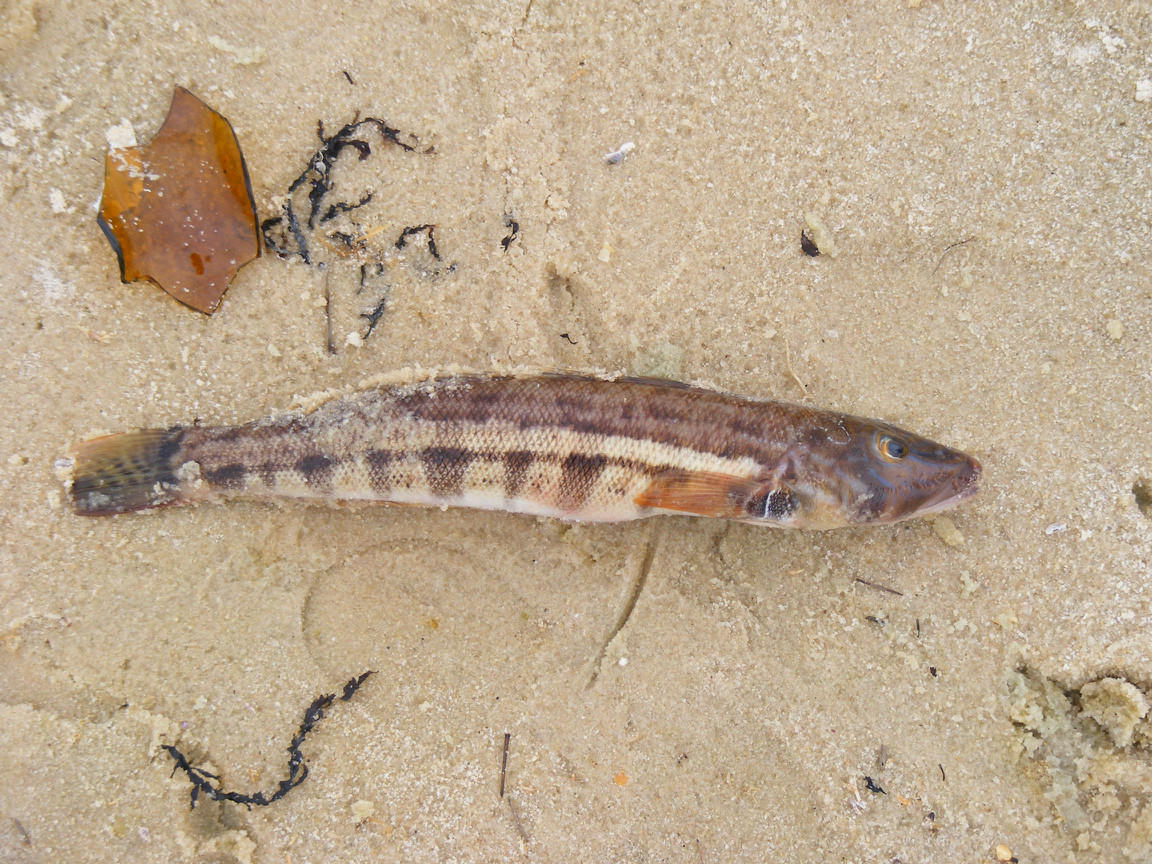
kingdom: Animalia
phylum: Chordata
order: Perciformes
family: Pinguipedidae
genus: Parapercis
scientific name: Parapercis robinsoni
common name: Smallscale sandsmelt
